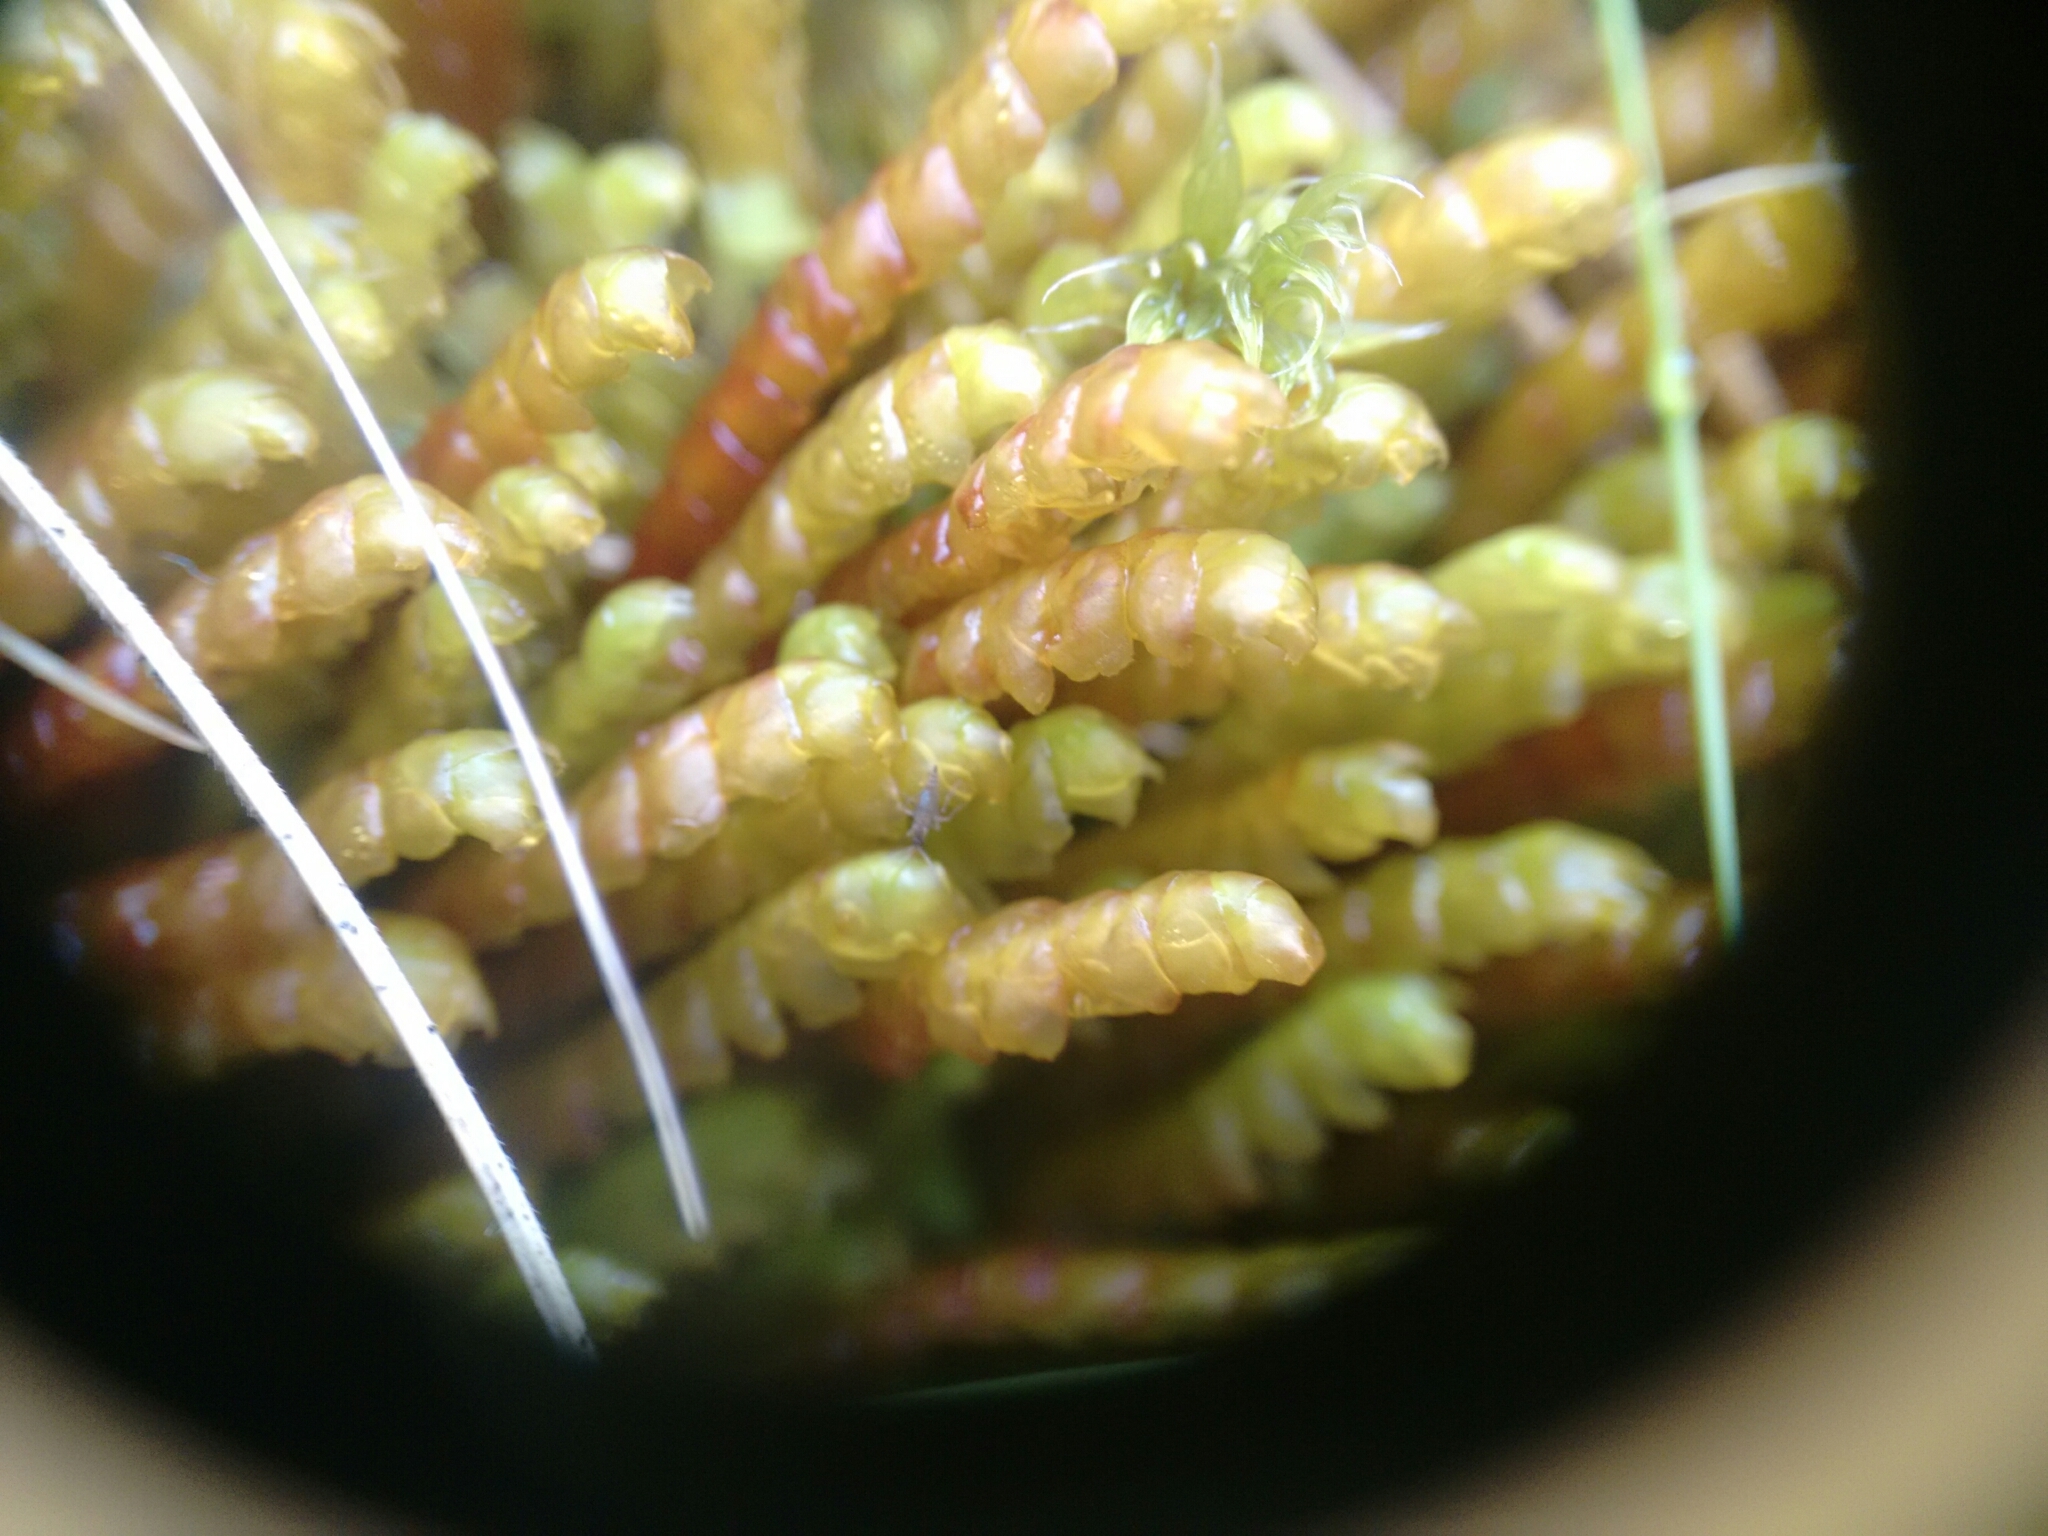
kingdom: Plantae
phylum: Marchantiophyta
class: Jungermanniopsida
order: Pleuroziales
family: Pleuroziaceae
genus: Pleurozia
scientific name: Pleurozia purpurea
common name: Purple spoonwort
